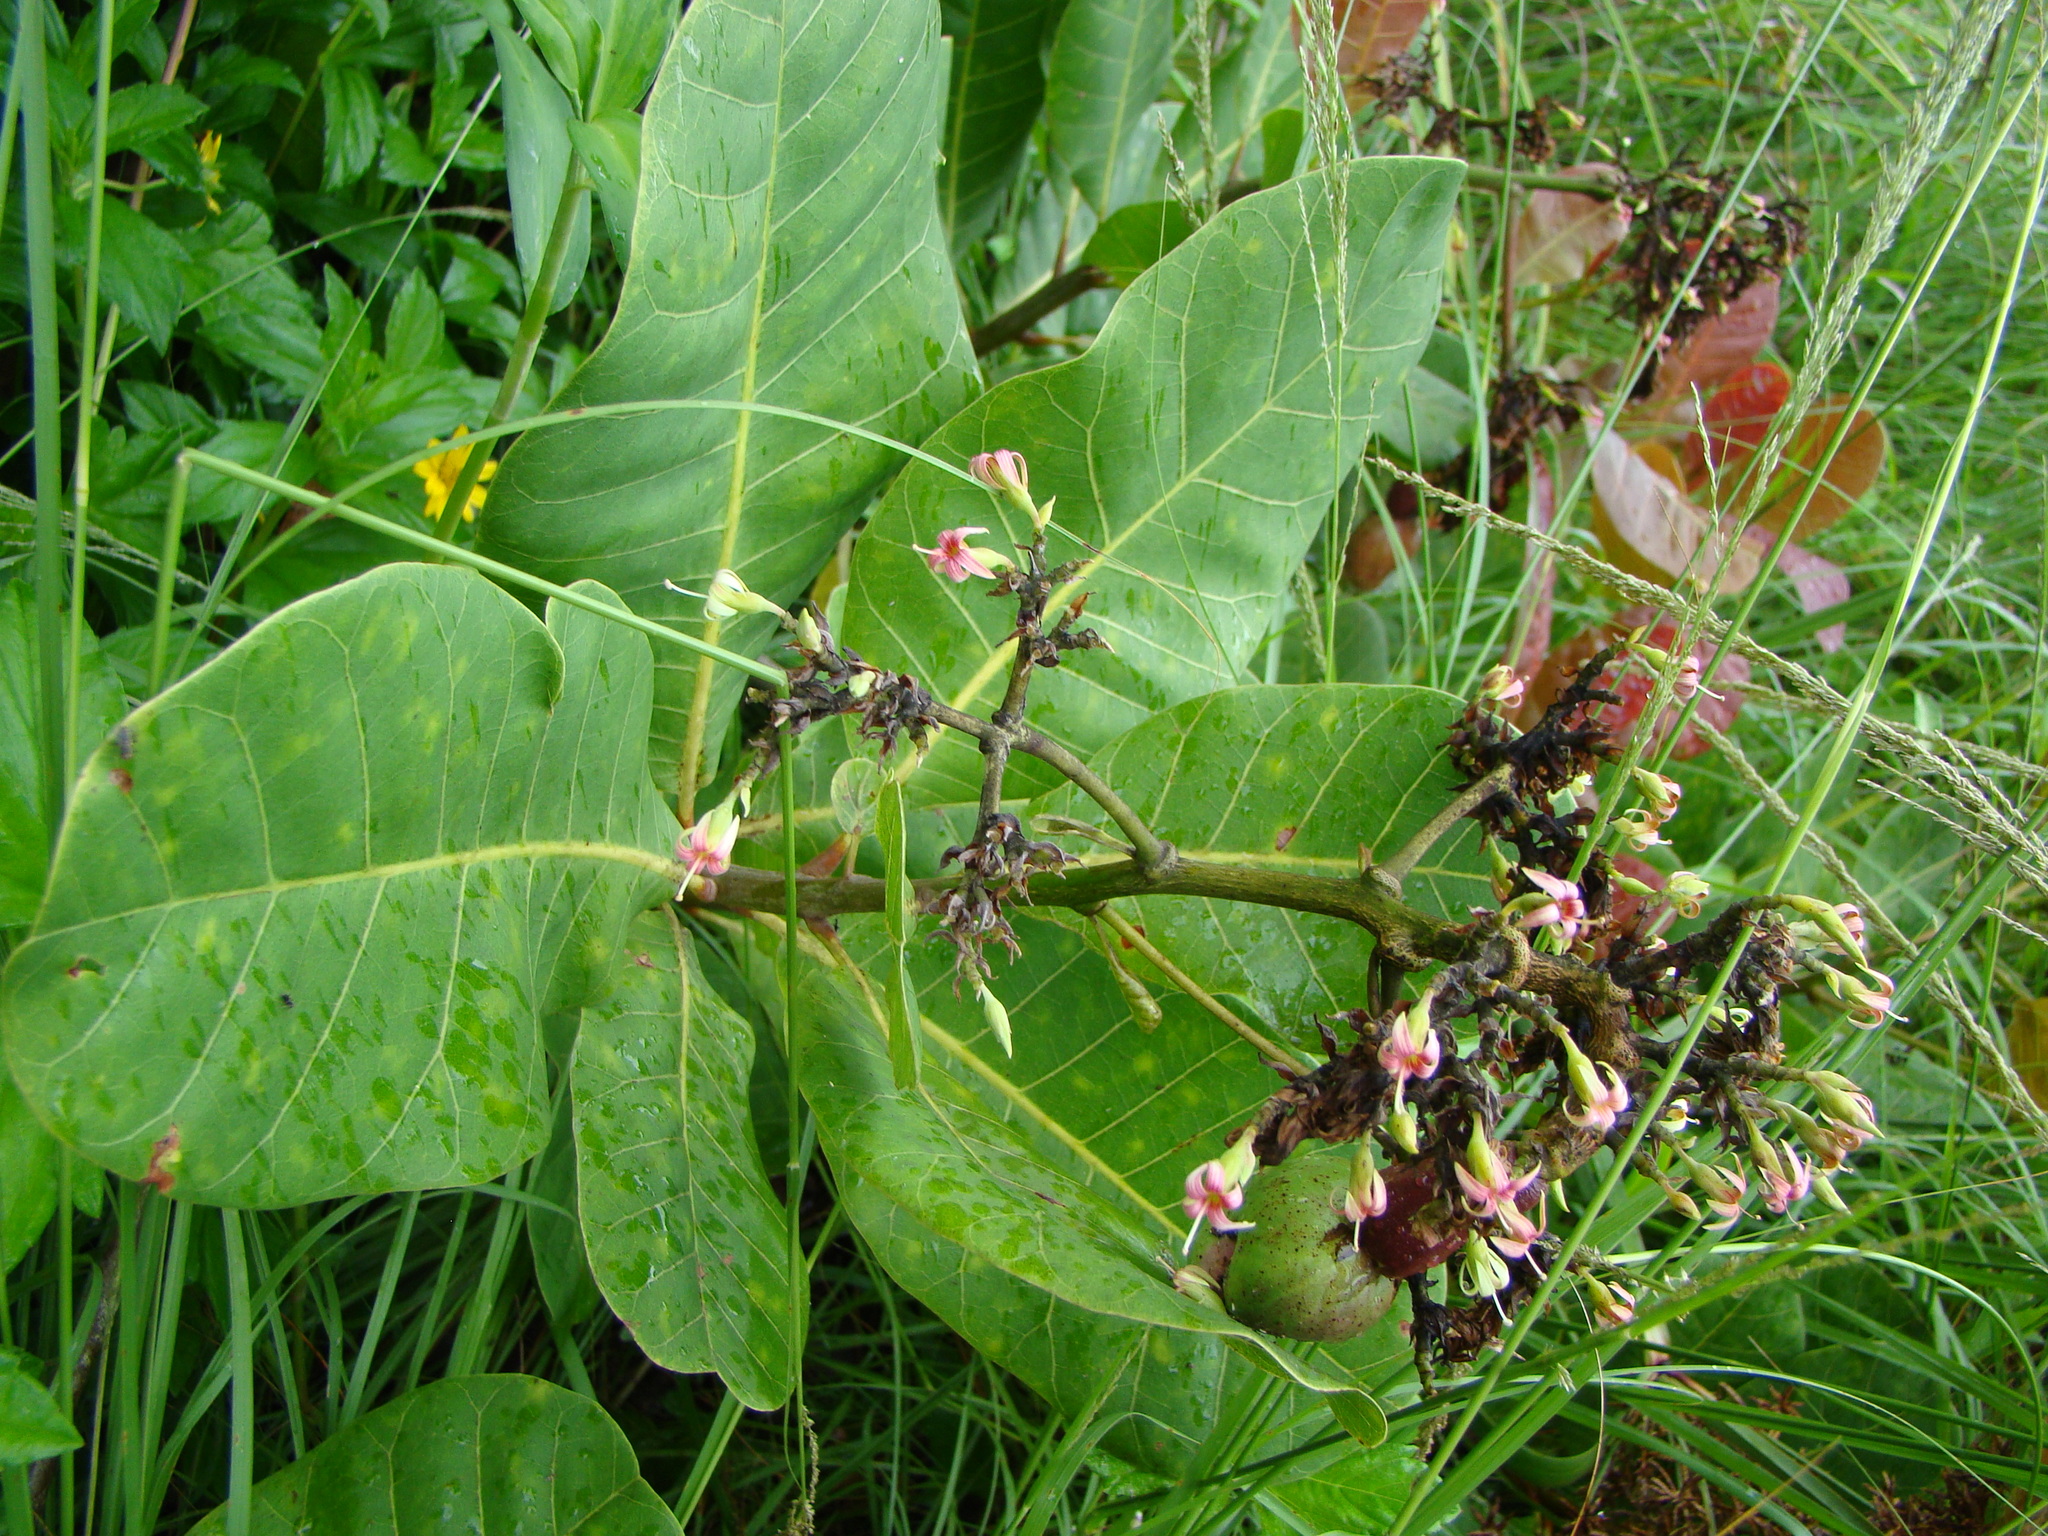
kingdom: Plantae
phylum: Tracheophyta
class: Magnoliopsida
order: Sapindales
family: Anacardiaceae
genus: Anacardium
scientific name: Anacardium occidentale
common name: Cashew
